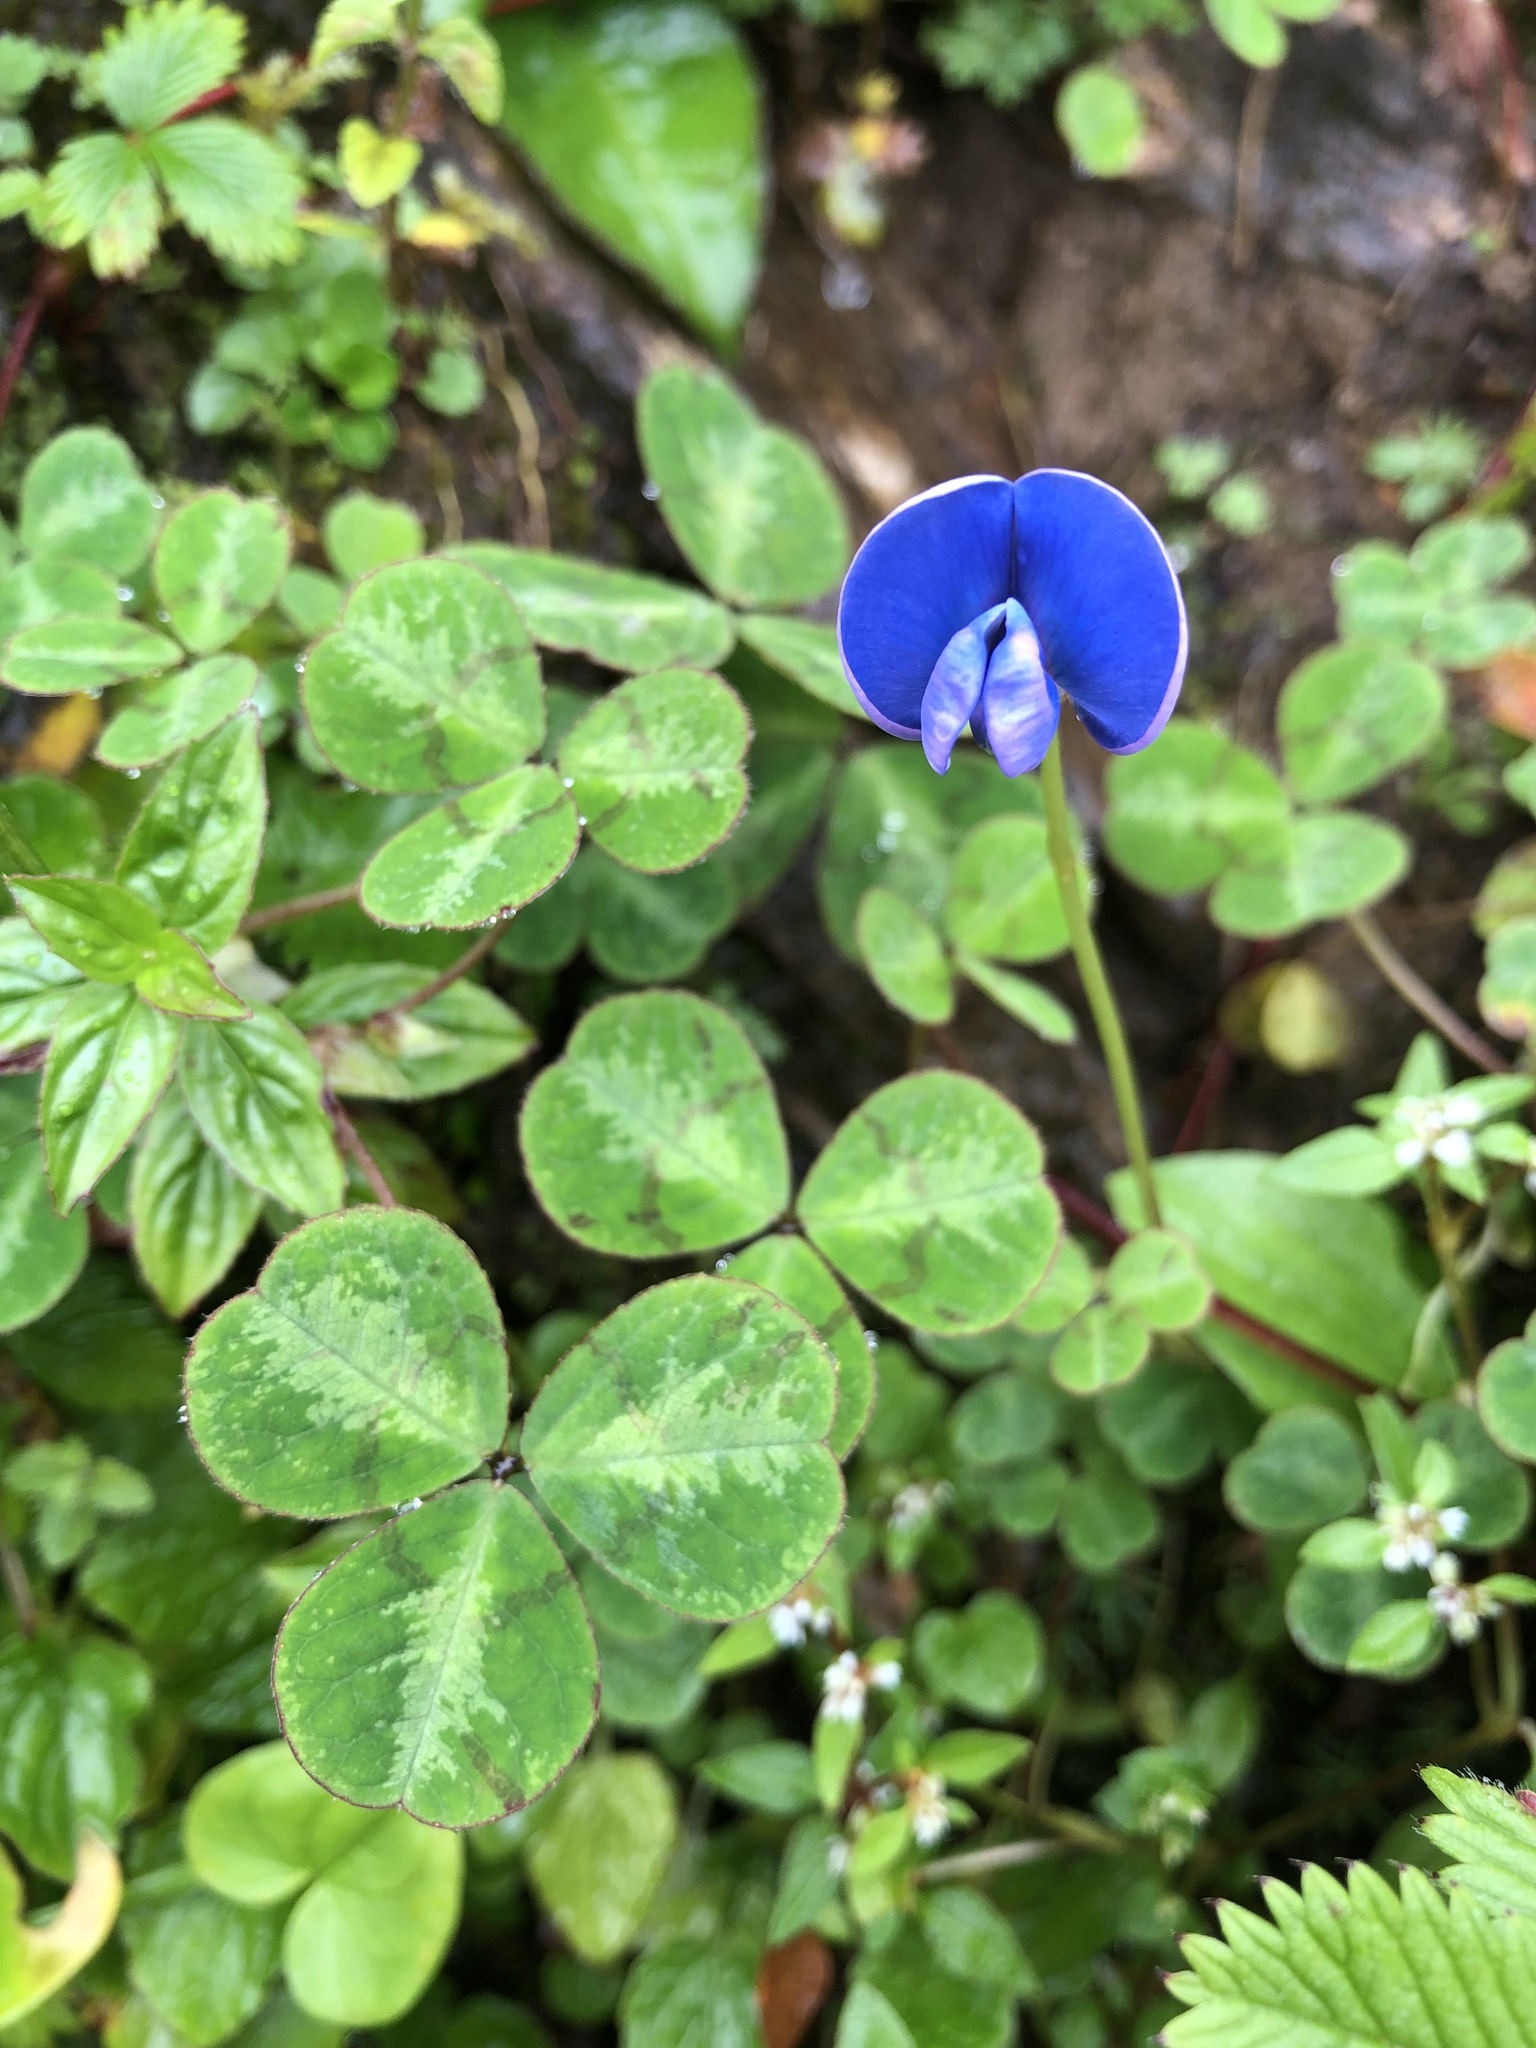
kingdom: Plantae
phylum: Tracheophyta
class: Magnoliopsida
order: Fabales
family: Fabaceae
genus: Parochetus
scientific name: Parochetus communis
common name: Blue oxalis
